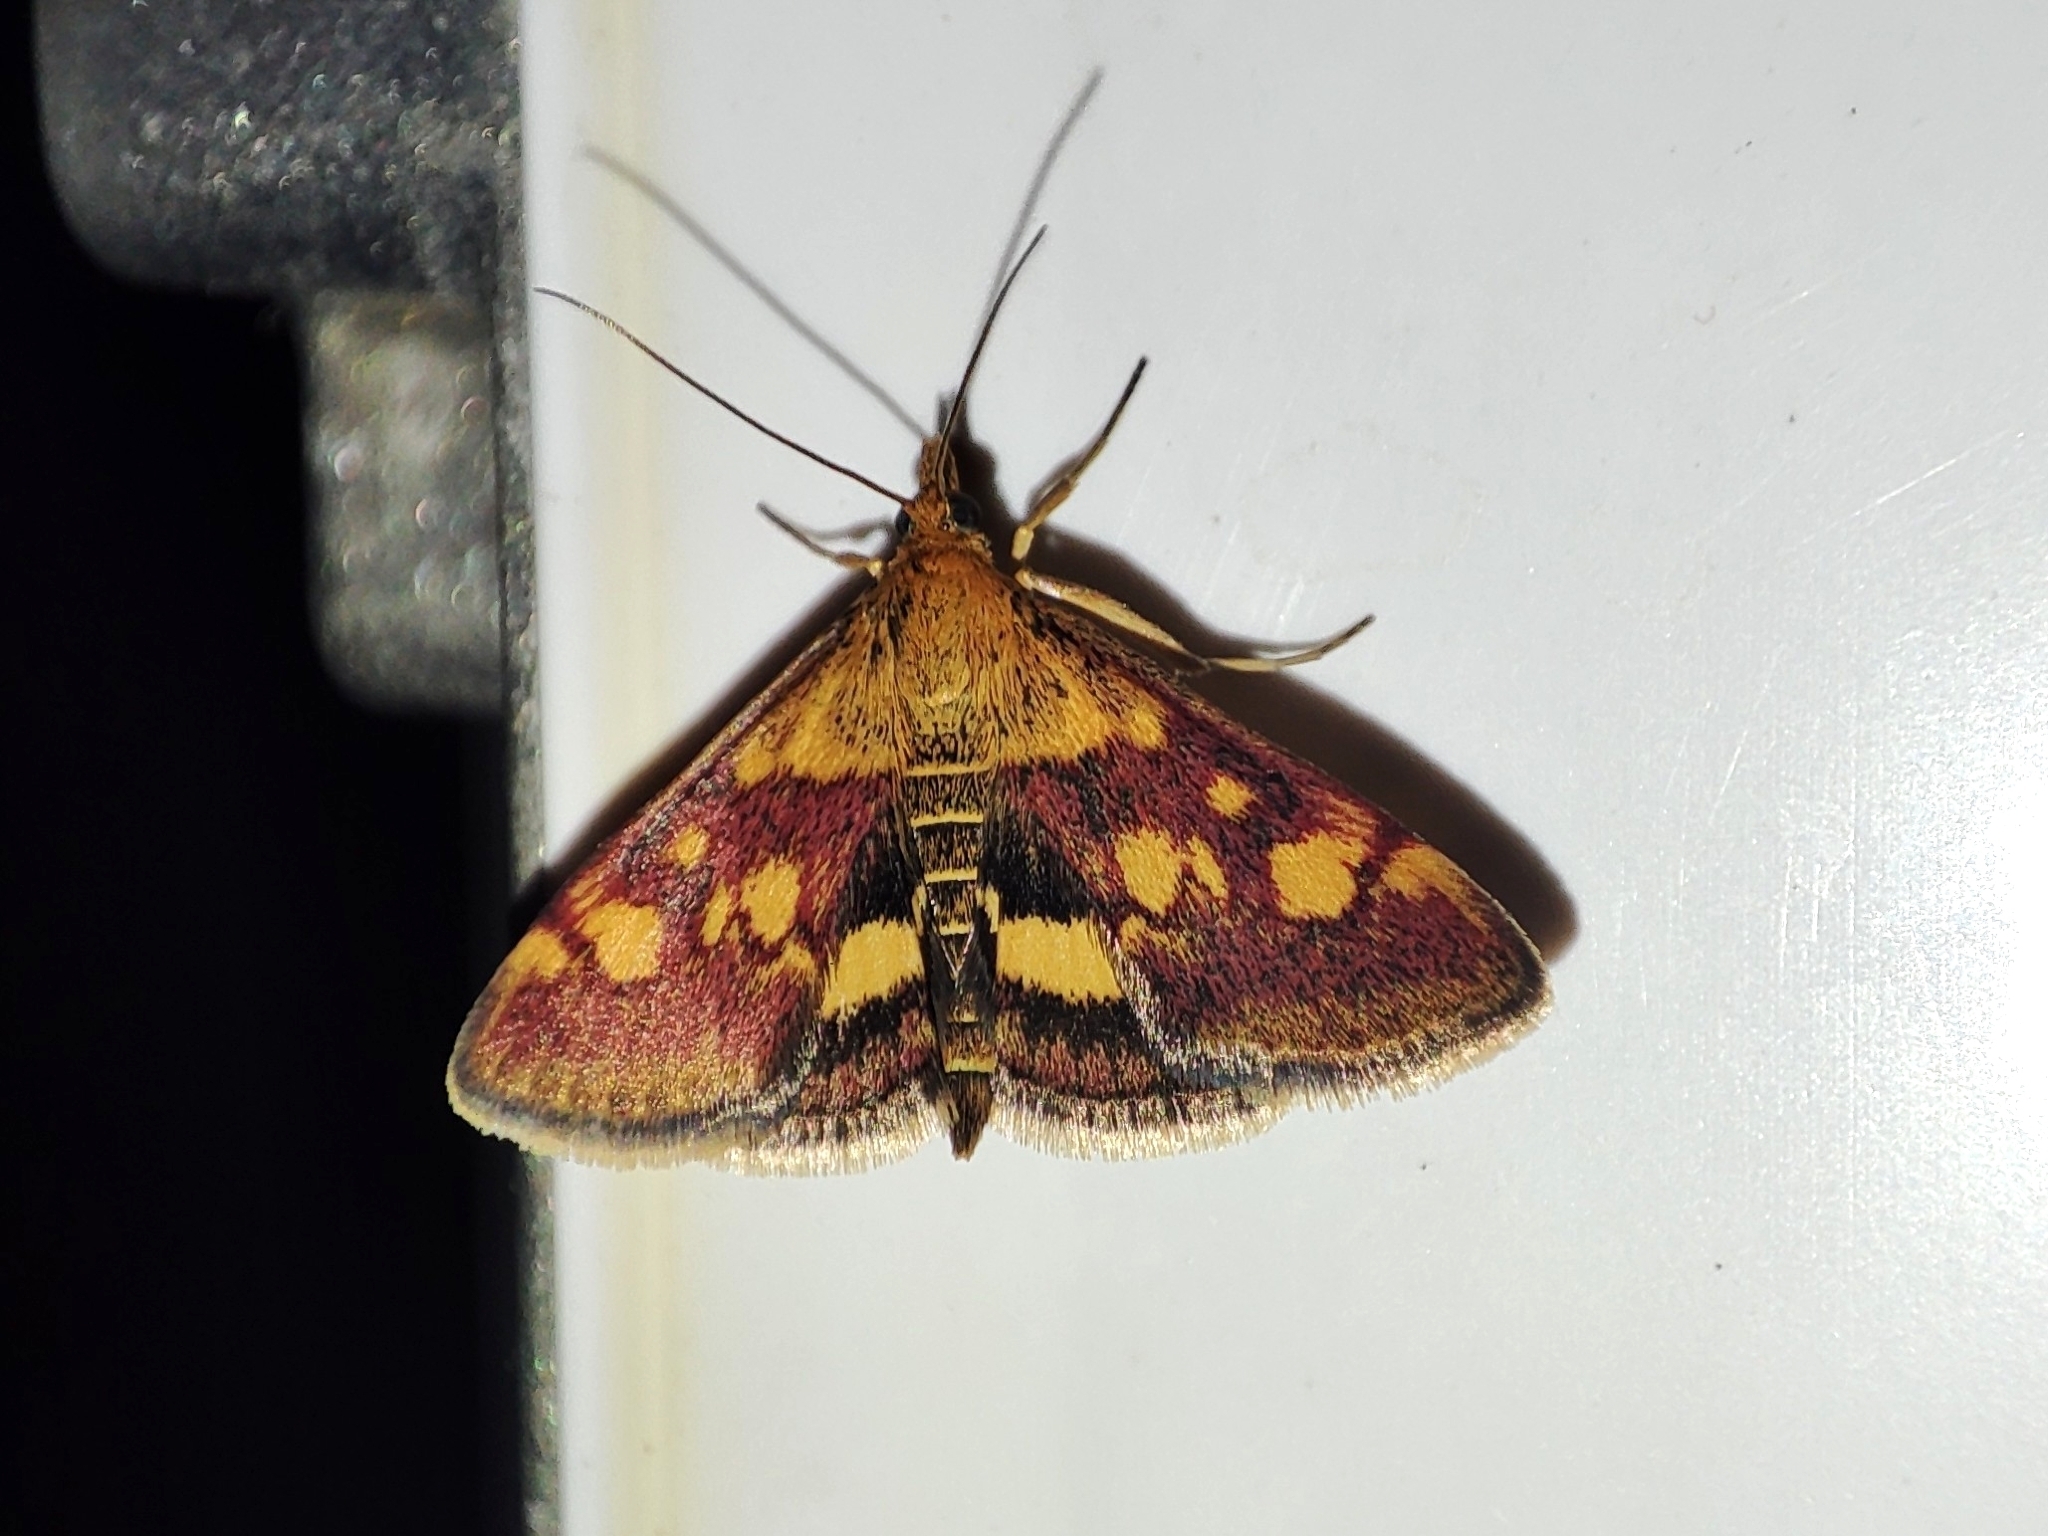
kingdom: Animalia
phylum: Arthropoda
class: Insecta
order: Lepidoptera
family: Crambidae
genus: Pyrausta
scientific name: Pyrausta aurata
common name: Small purple & gold
